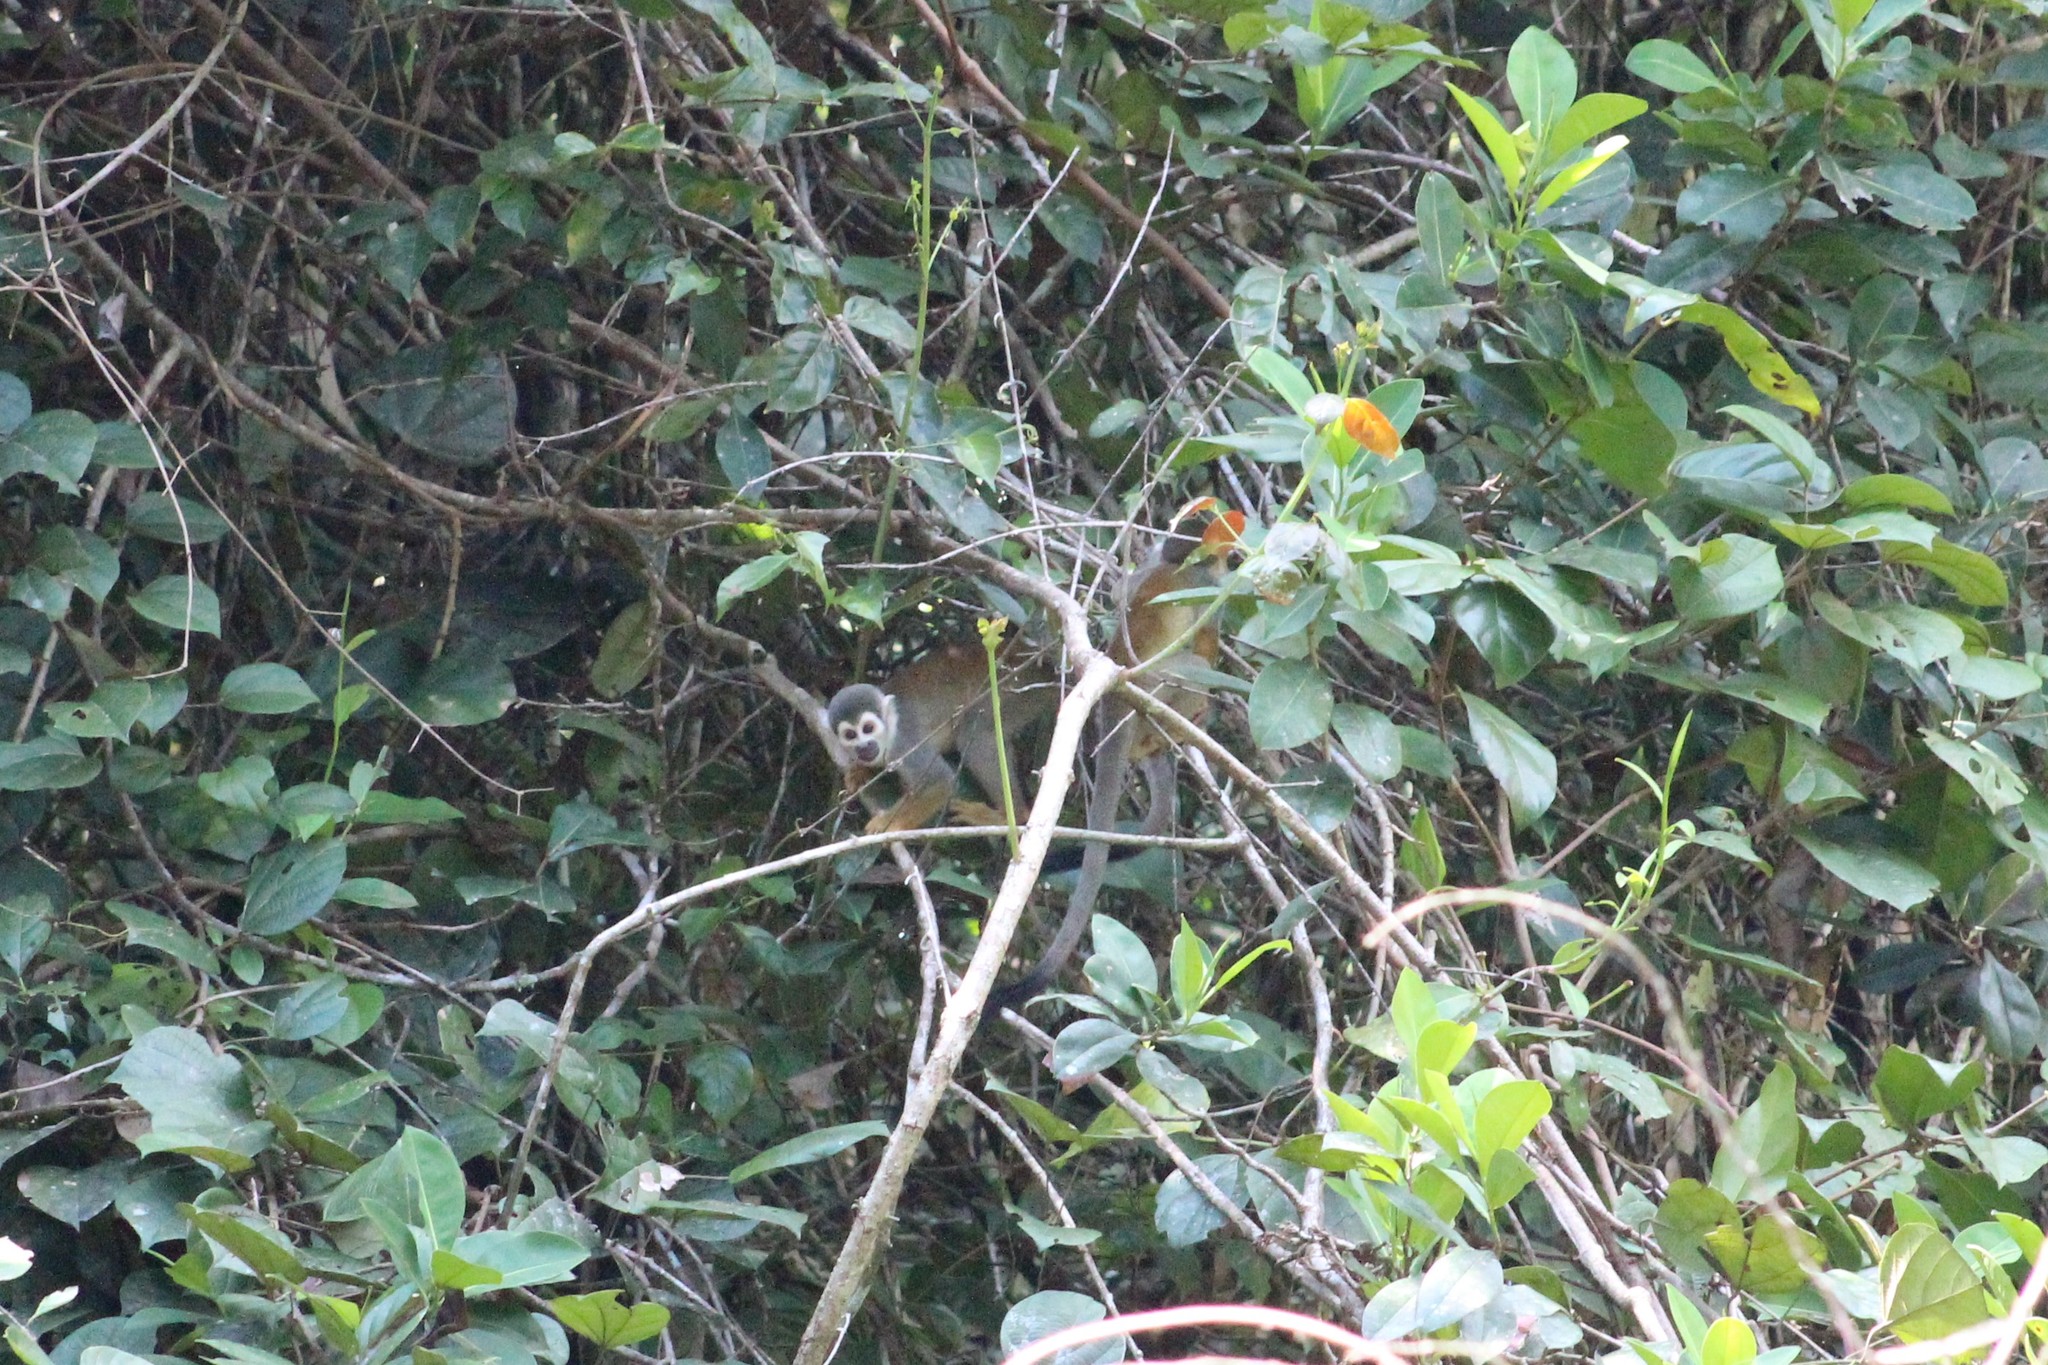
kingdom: Animalia
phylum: Chordata
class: Mammalia
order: Primates
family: Cebidae
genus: Saimiri
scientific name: Saimiri cassiquiarensis
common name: Humboldt’s squirrel monkey
